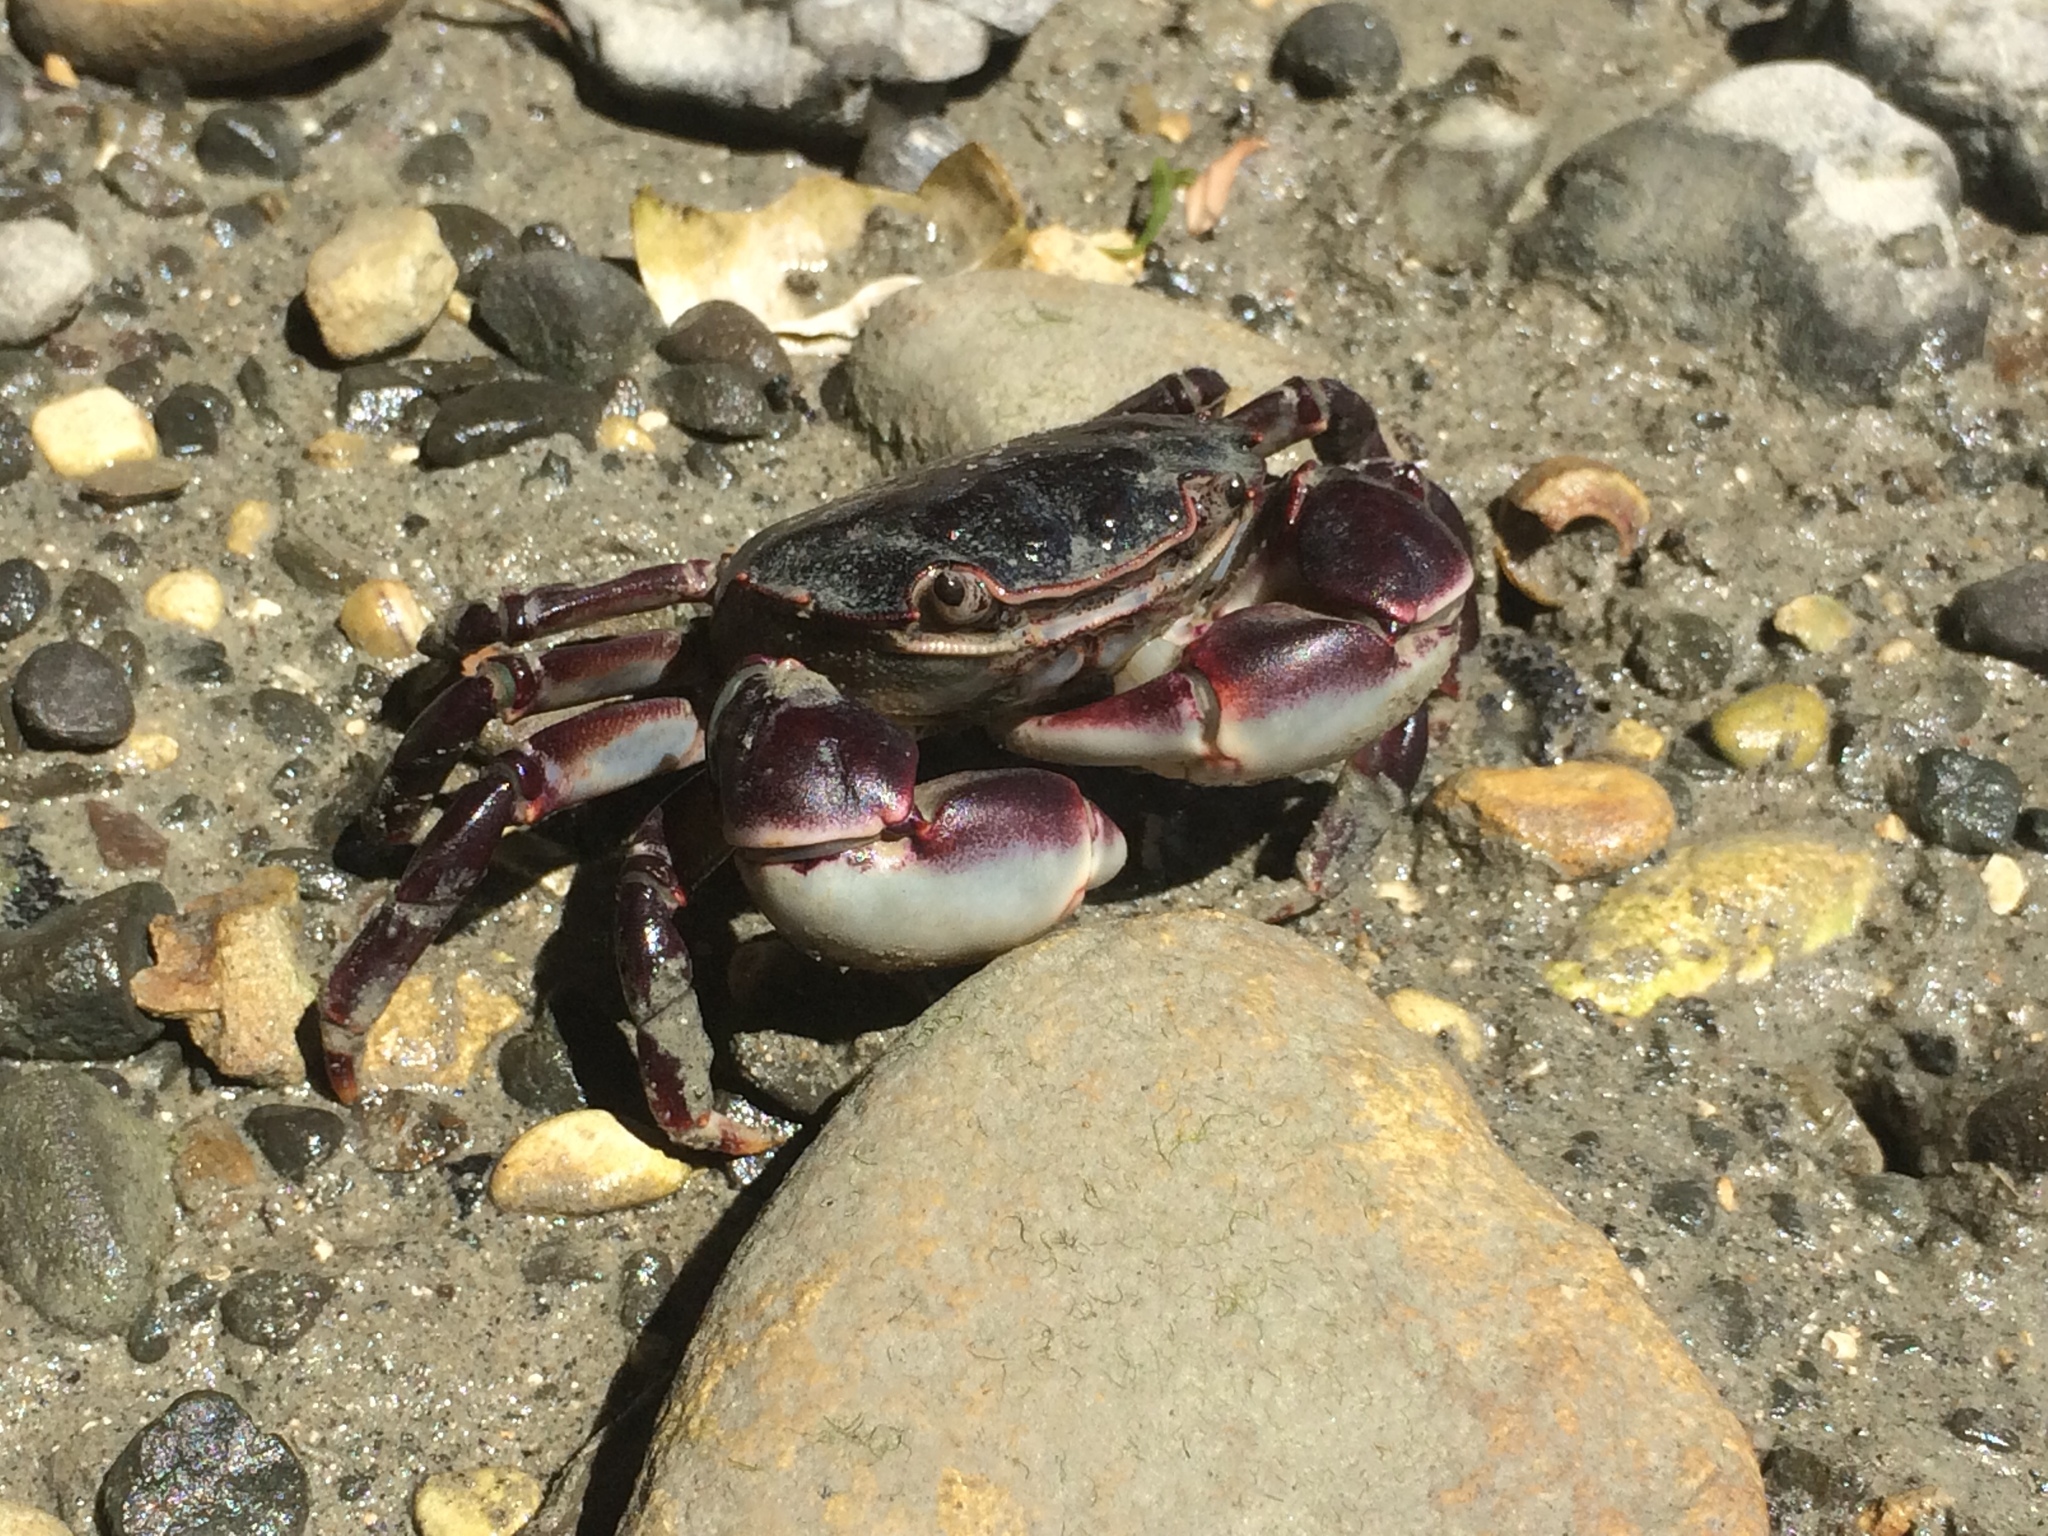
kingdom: Animalia
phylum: Arthropoda
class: Malacostraca
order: Decapoda
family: Varunidae
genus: Hemigrapsus
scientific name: Hemigrapsus sexdentatus
